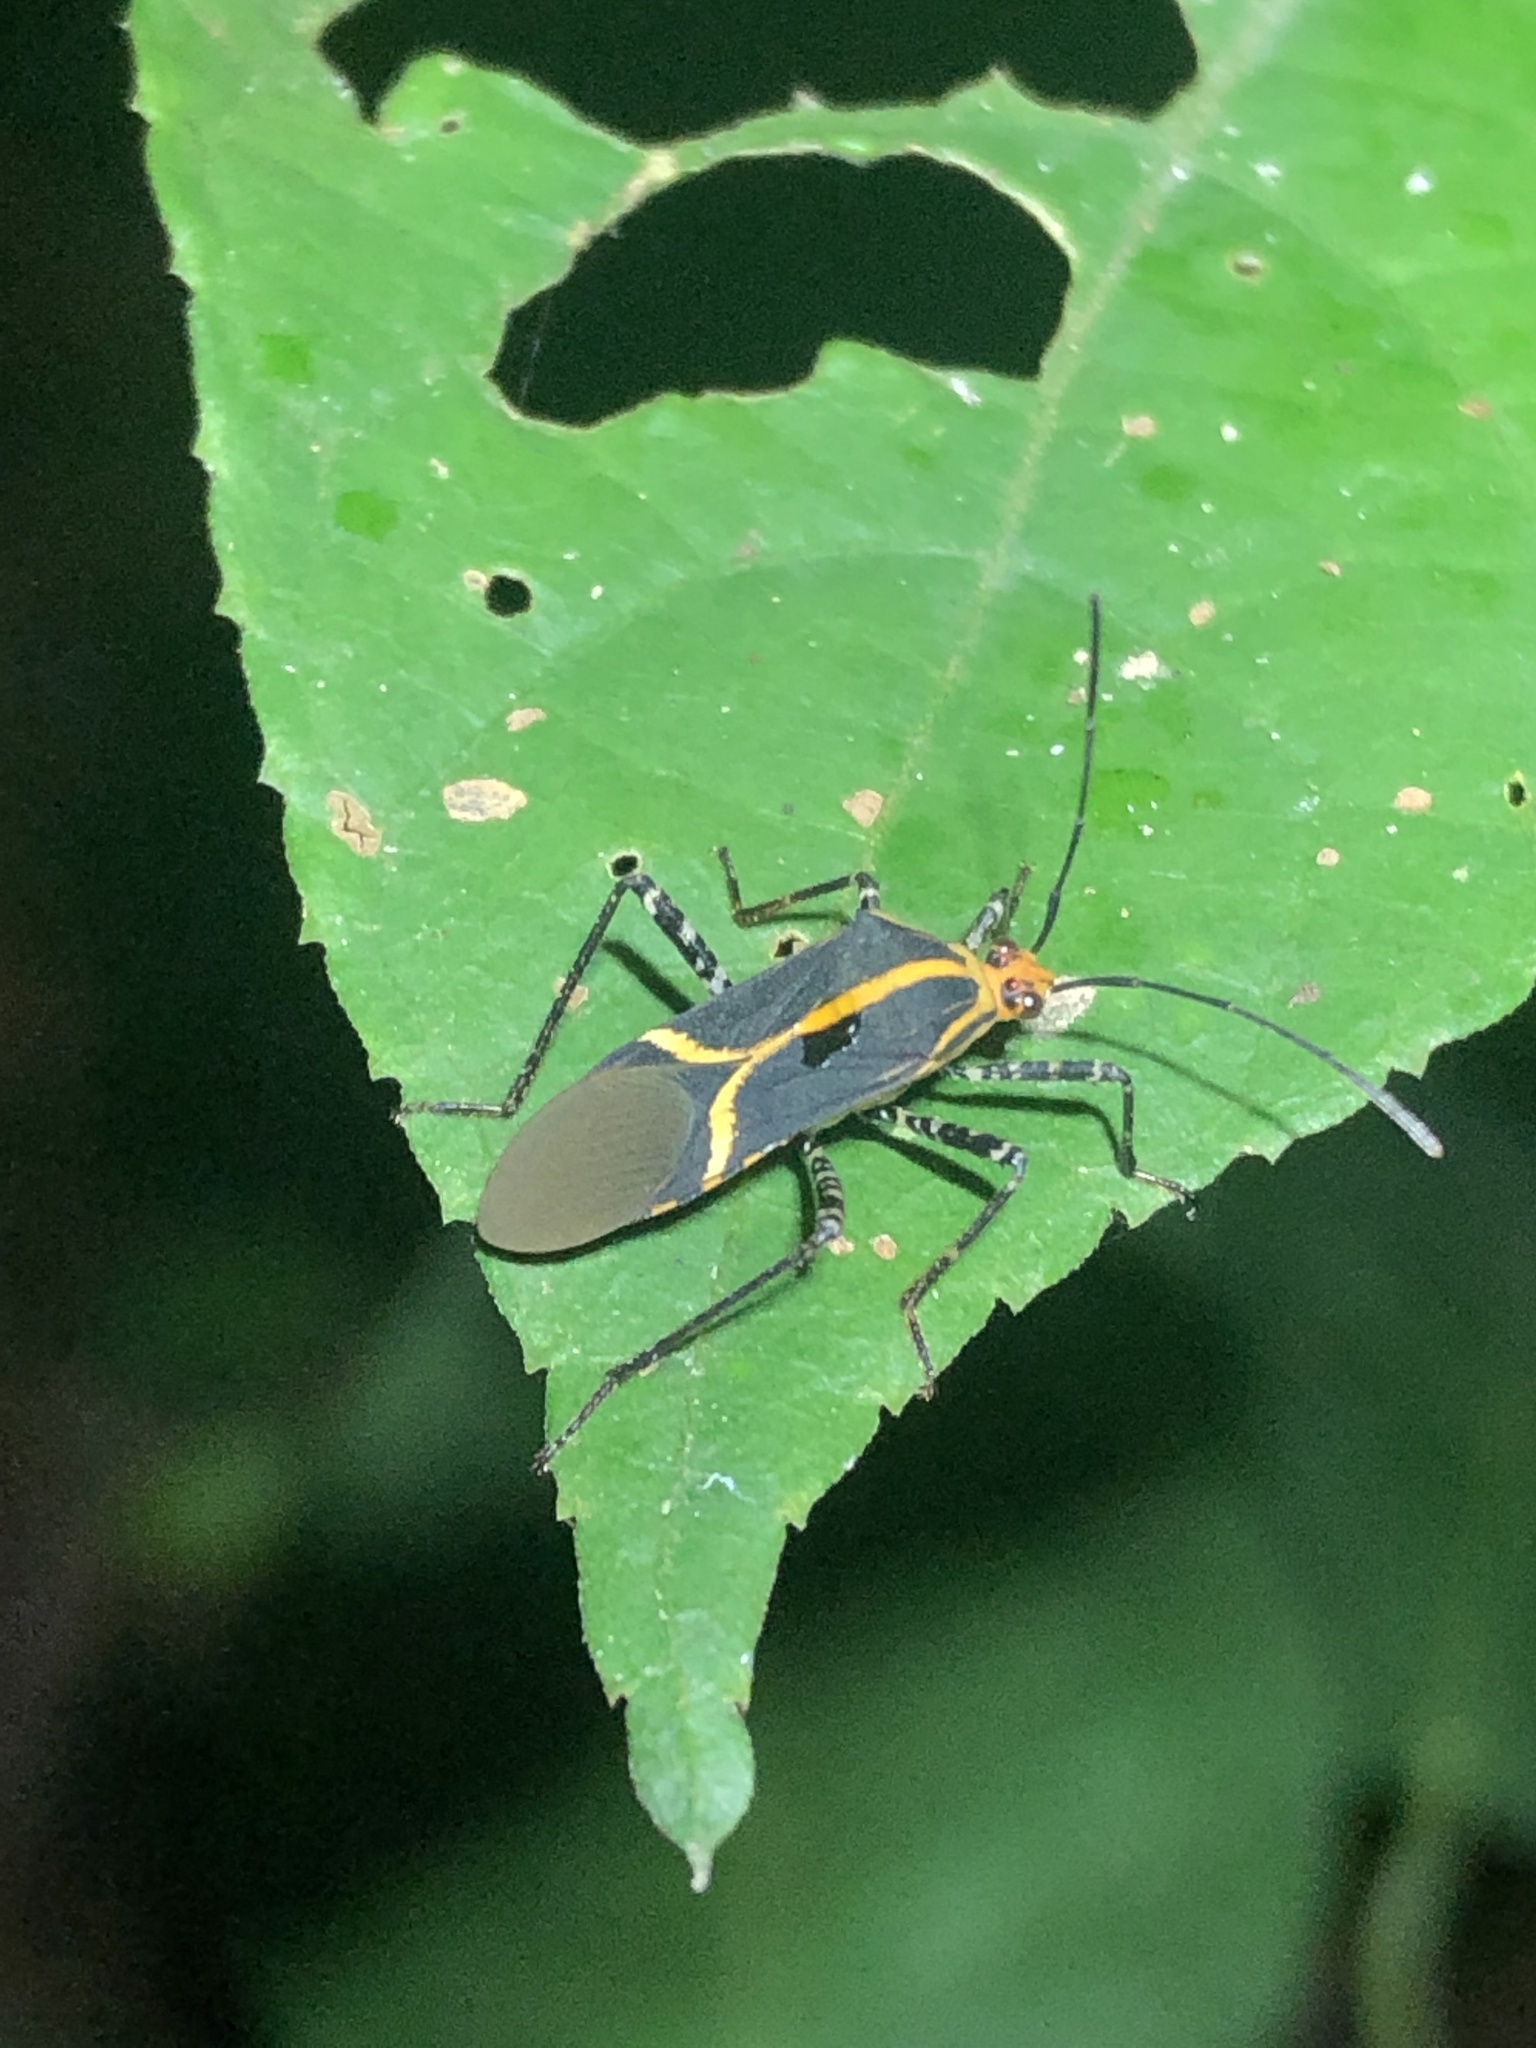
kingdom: Animalia
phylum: Arthropoda
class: Insecta
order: Hemiptera
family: Coreidae
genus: Hypselonotus
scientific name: Hypselonotus linea
